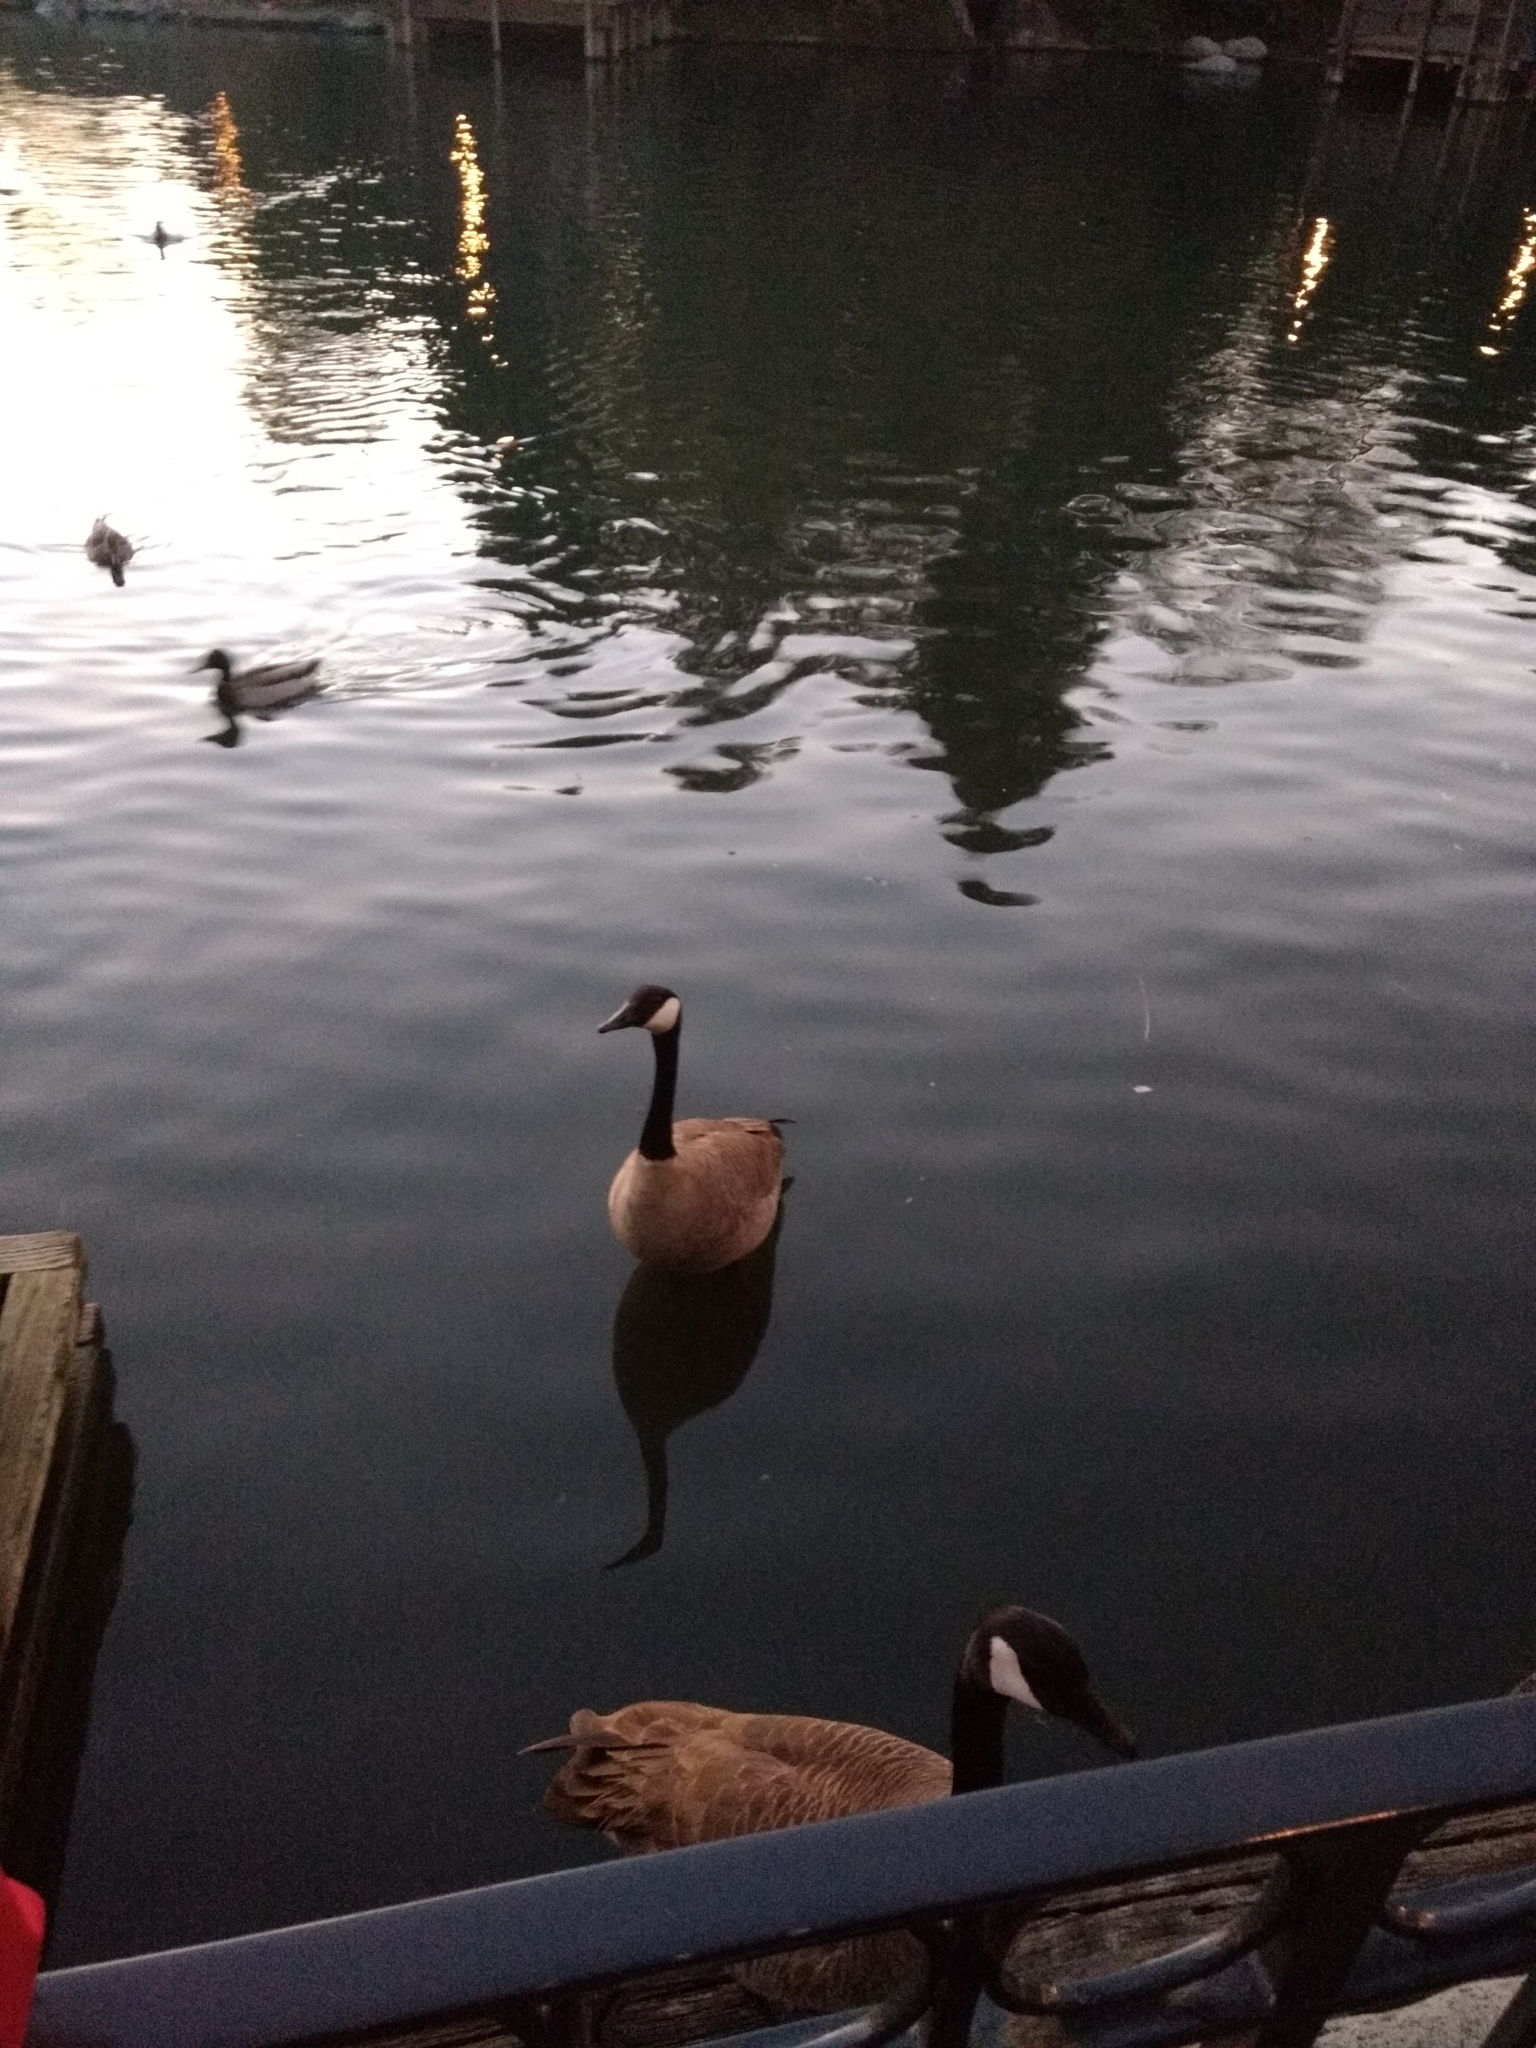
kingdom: Animalia
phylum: Chordata
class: Aves
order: Anseriformes
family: Anatidae
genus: Branta
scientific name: Branta canadensis
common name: Canada goose
